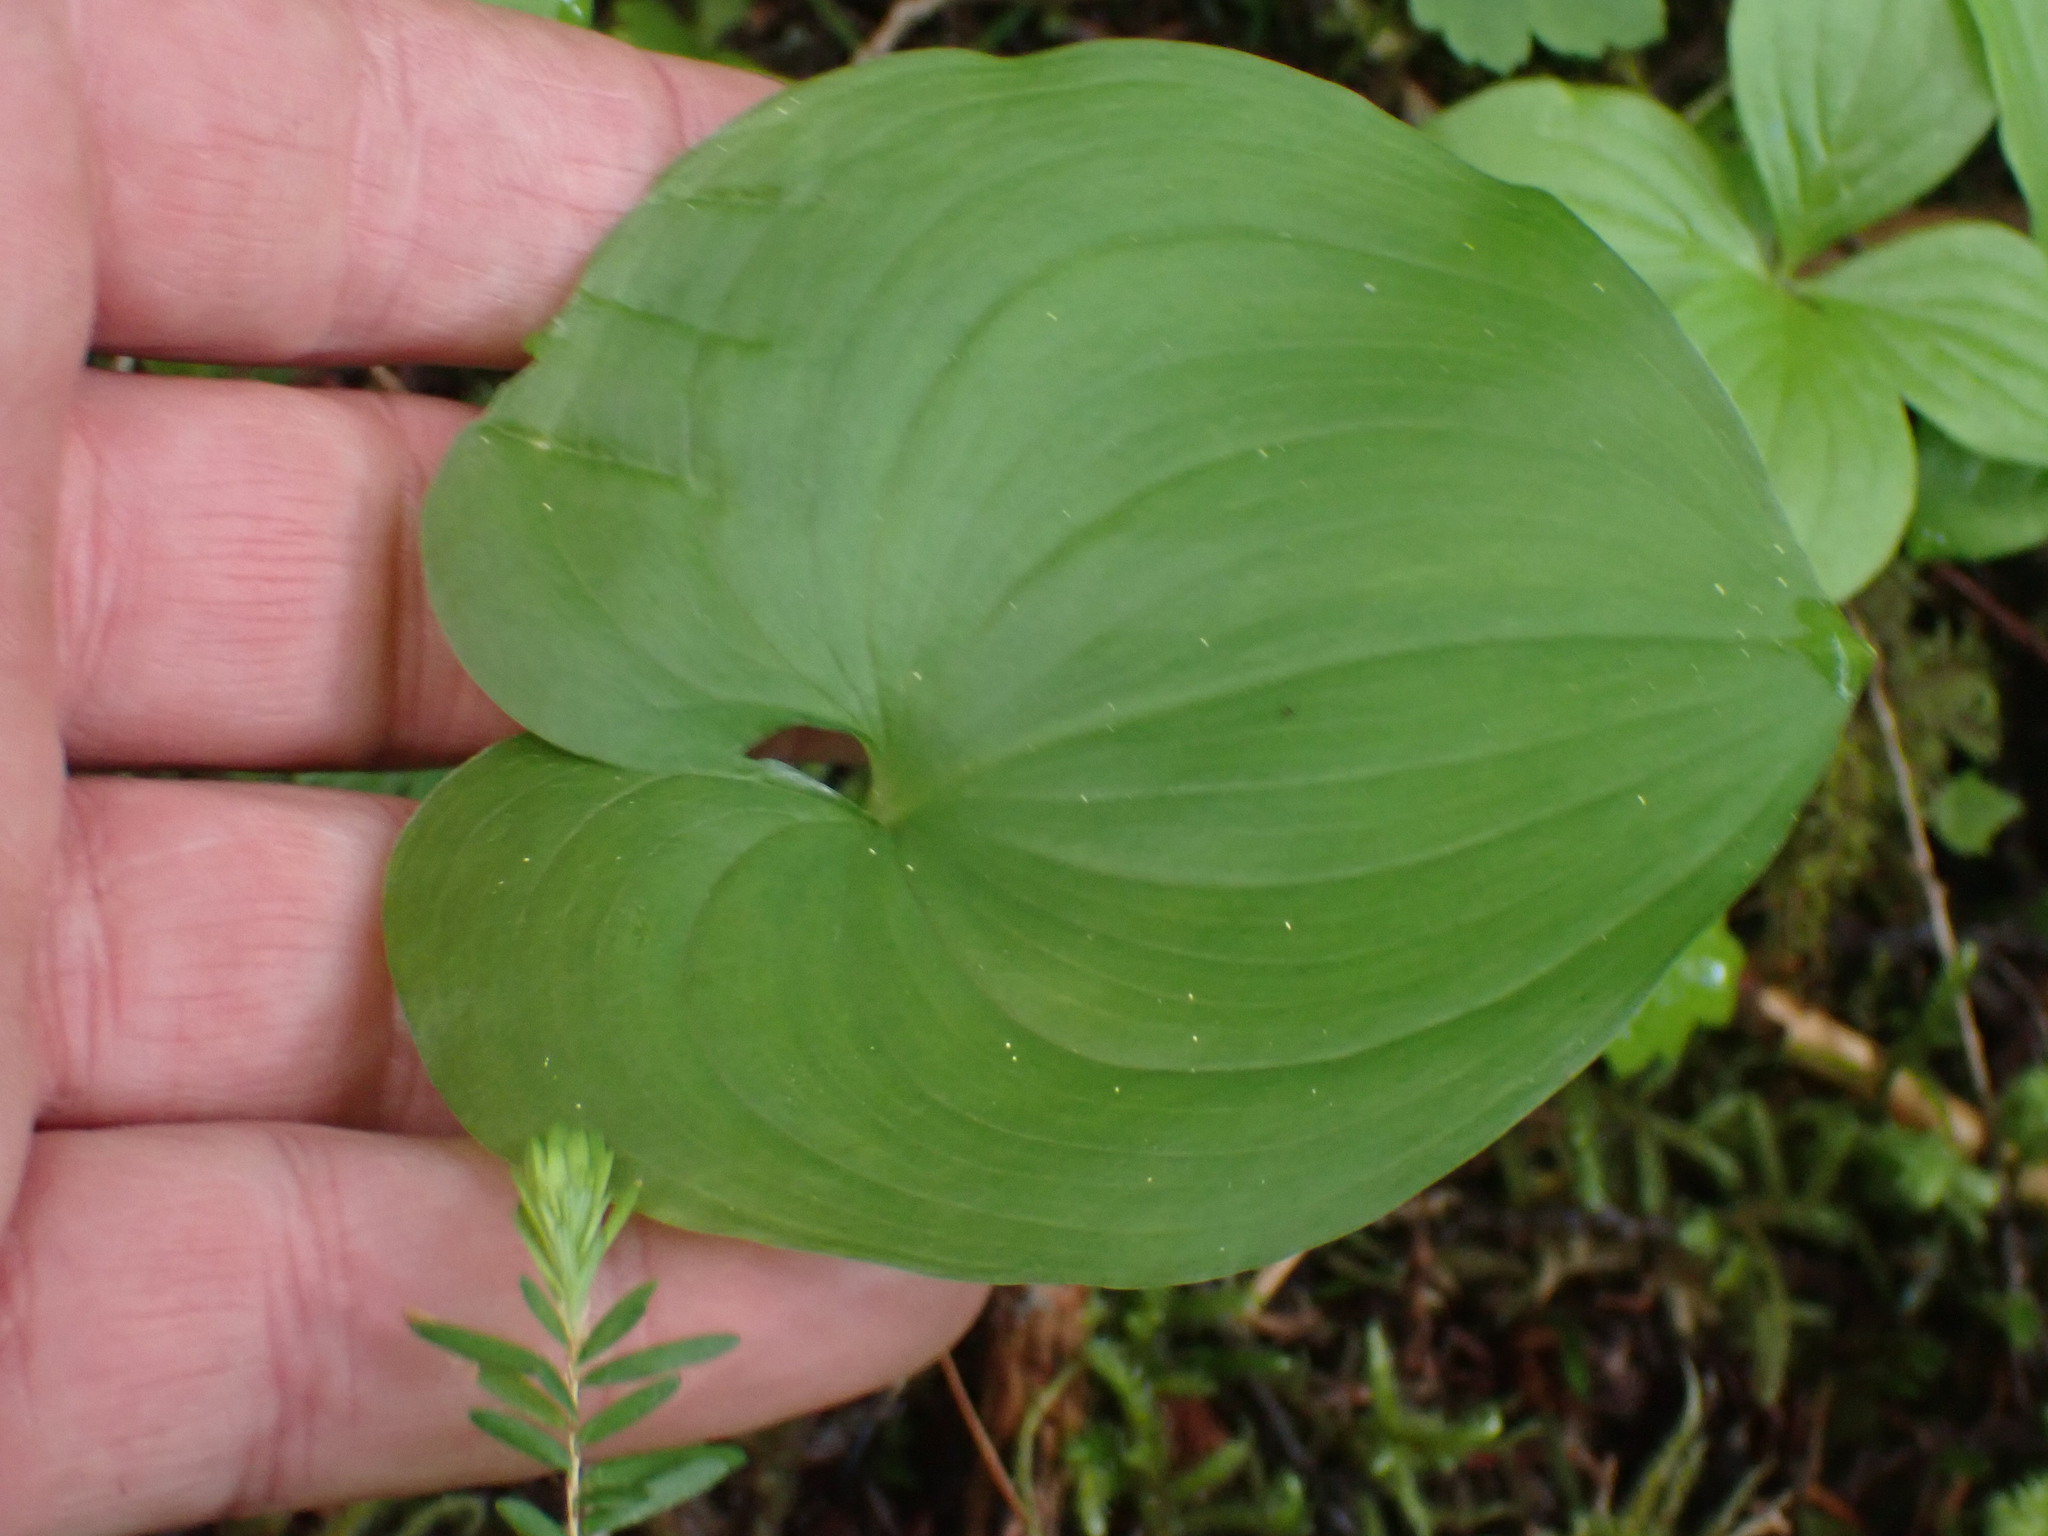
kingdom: Plantae
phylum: Tracheophyta
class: Liliopsida
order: Asparagales
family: Asparagaceae
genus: Maianthemum
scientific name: Maianthemum dilatatum
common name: False lily-of-the-valley
